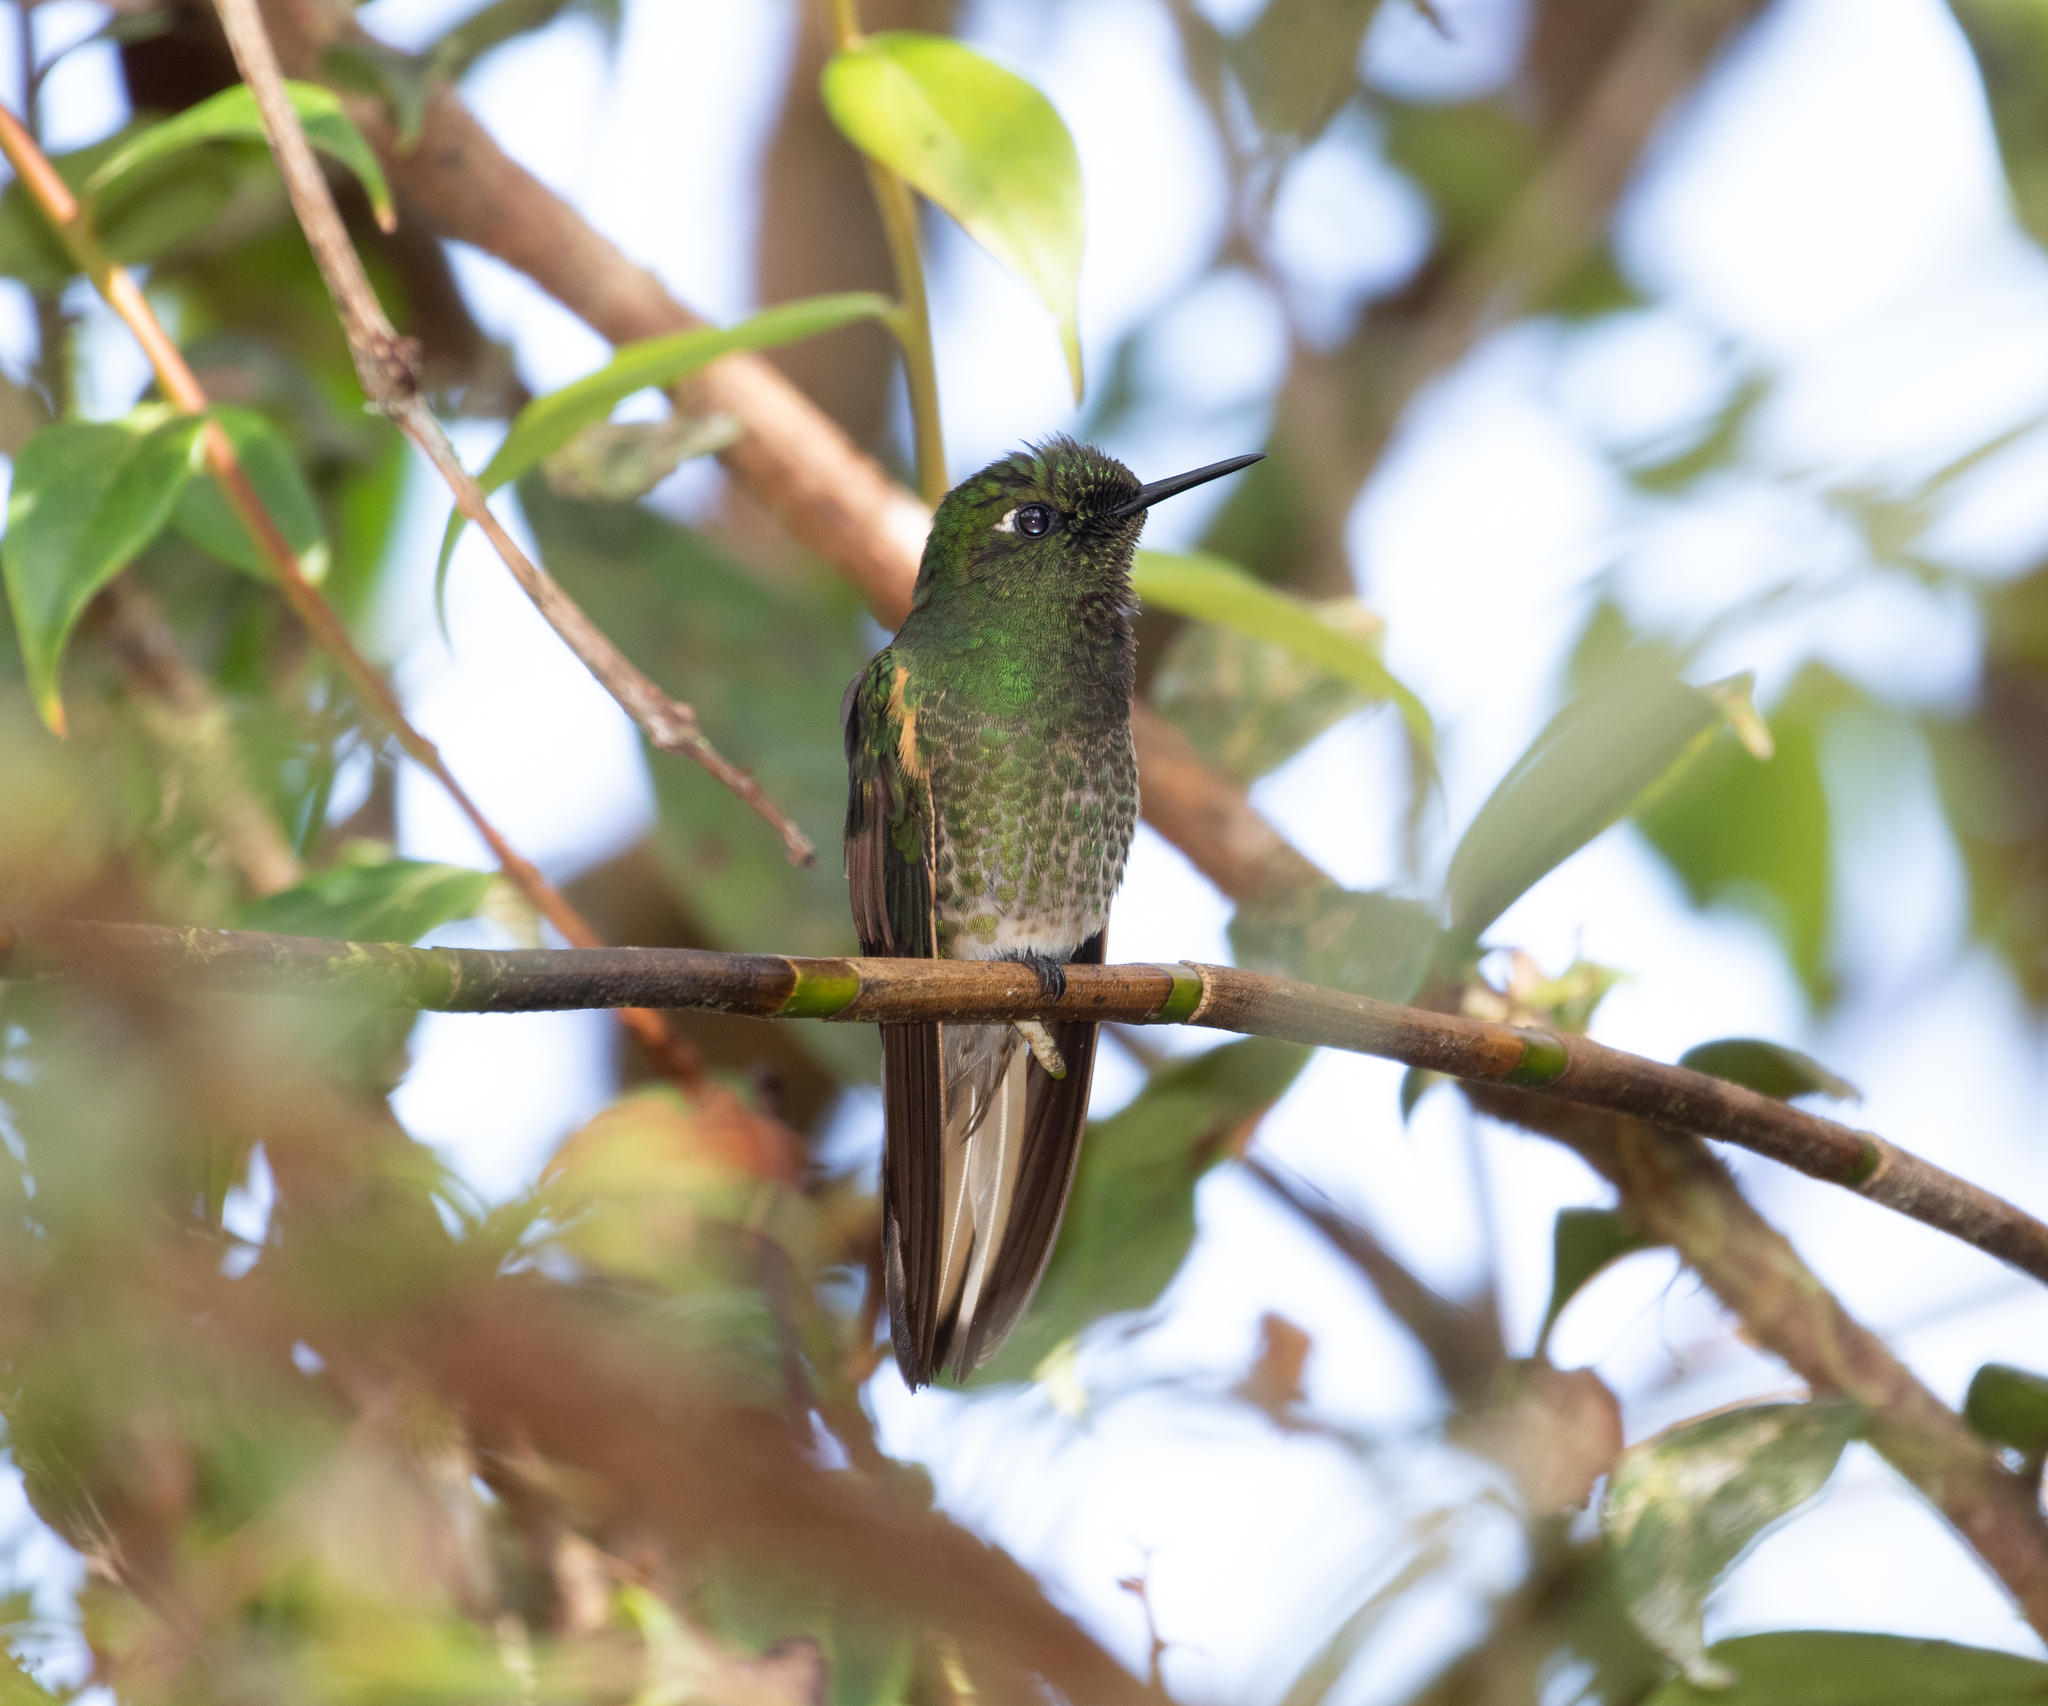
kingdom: Animalia
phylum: Chordata
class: Aves
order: Apodiformes
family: Trochilidae
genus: Boissonneaua
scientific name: Boissonneaua flavescens
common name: Buff-tailed coronet
